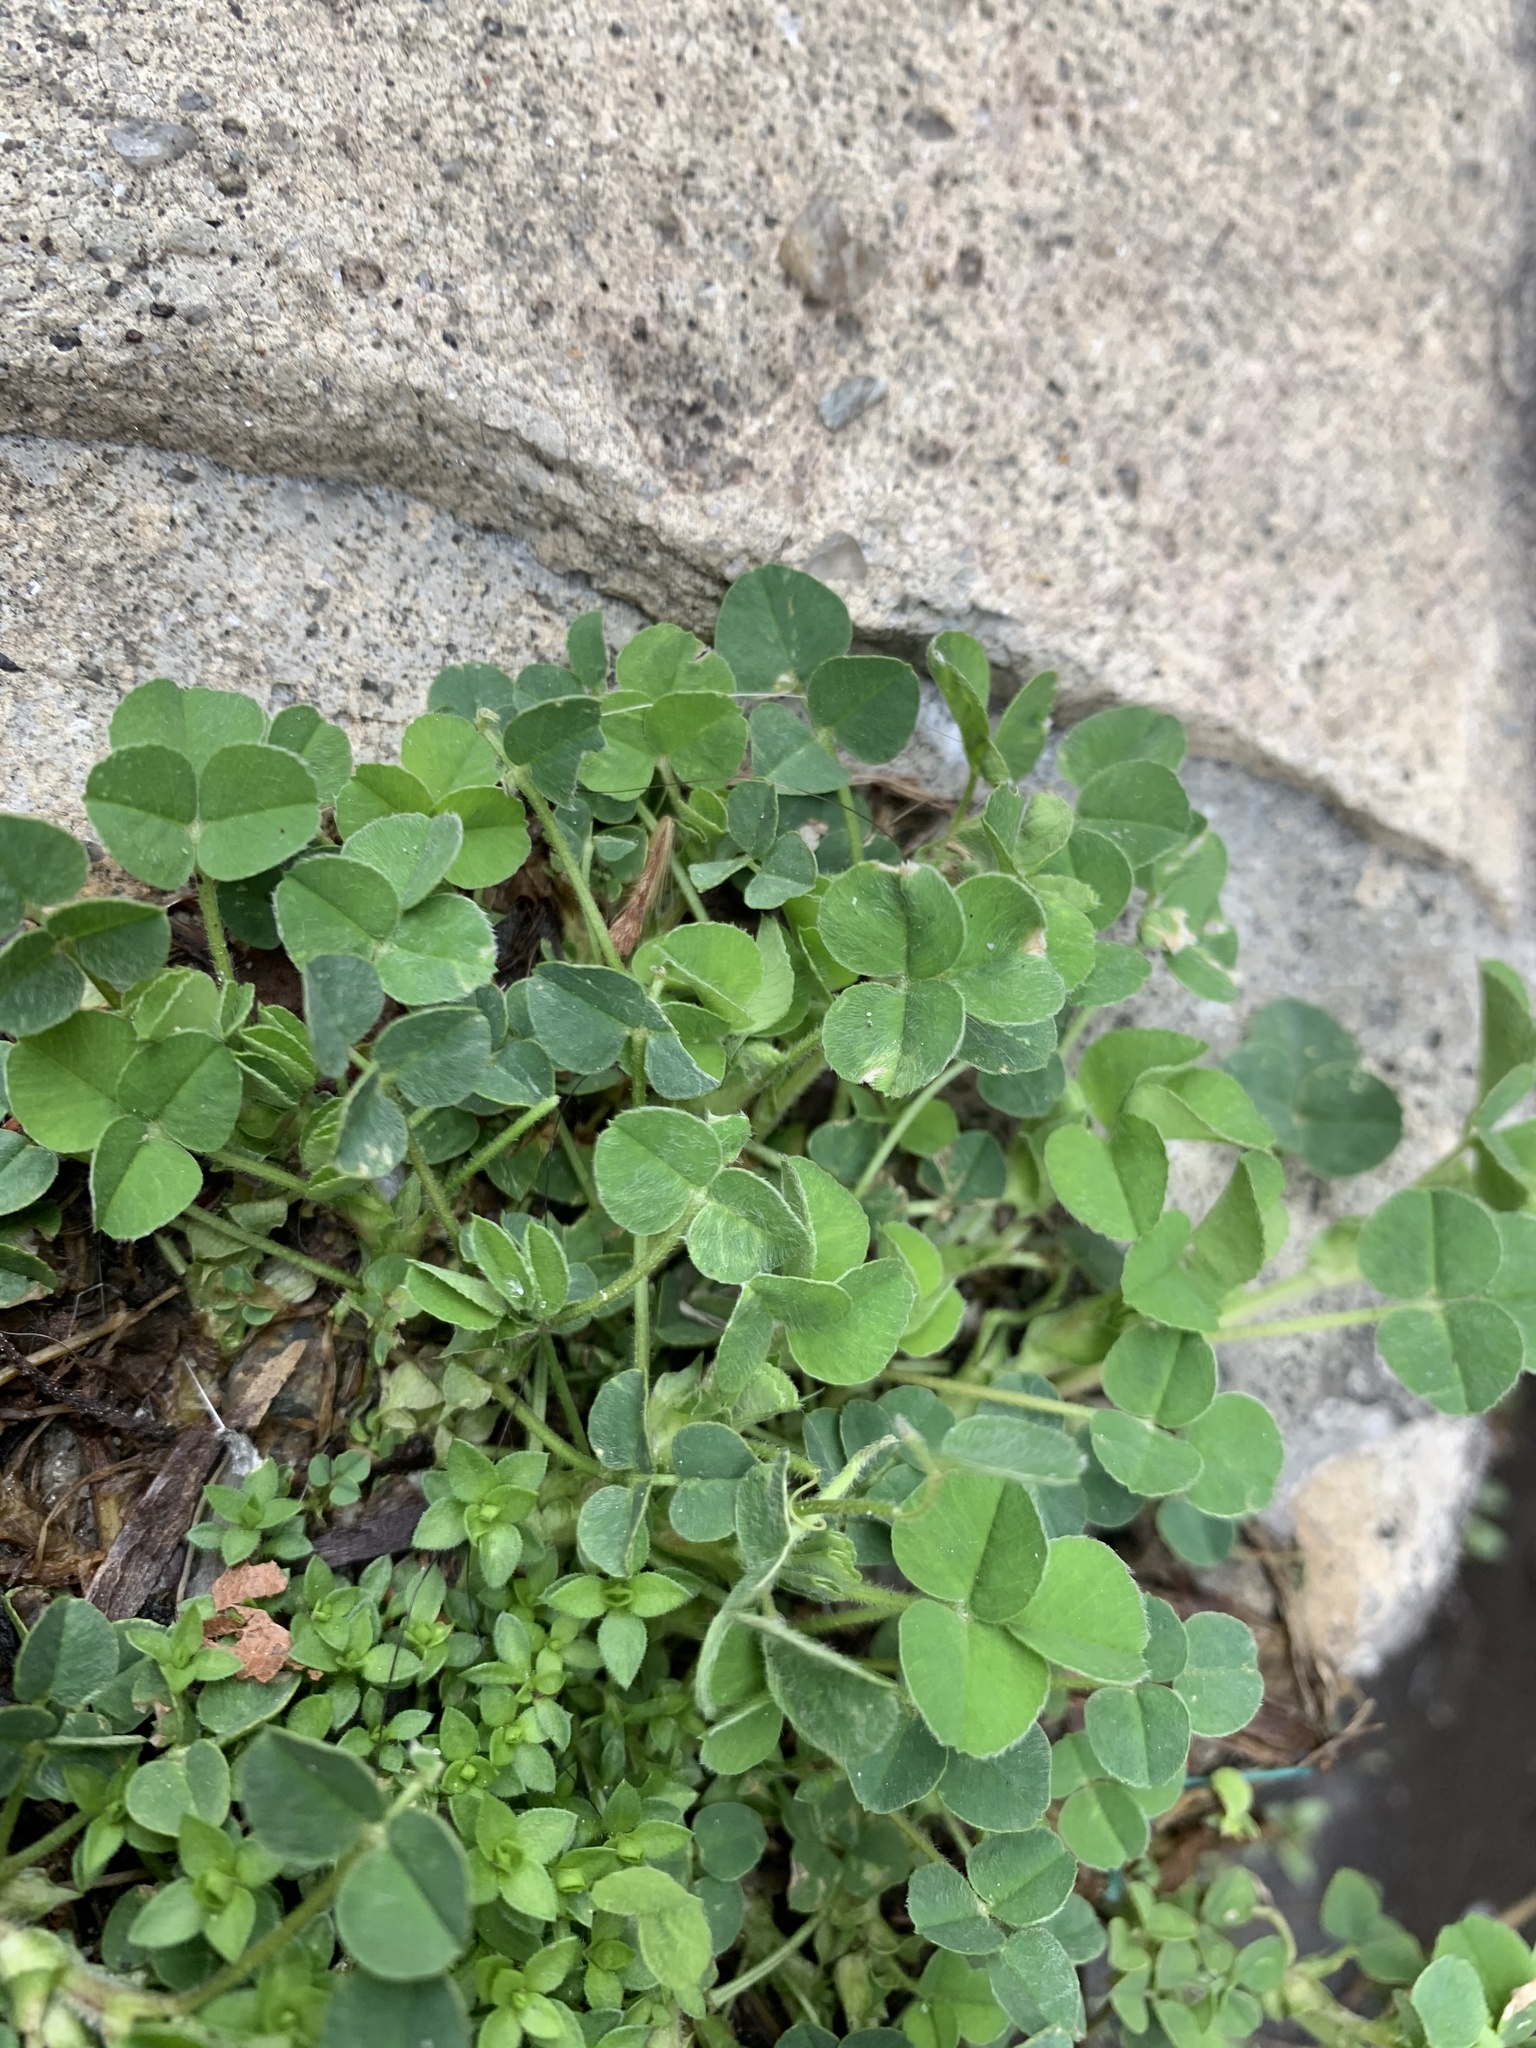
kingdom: Plantae
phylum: Tracheophyta
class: Magnoliopsida
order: Fabales
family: Fabaceae
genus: Medicago
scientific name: Medicago lupulina
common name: Black medick
